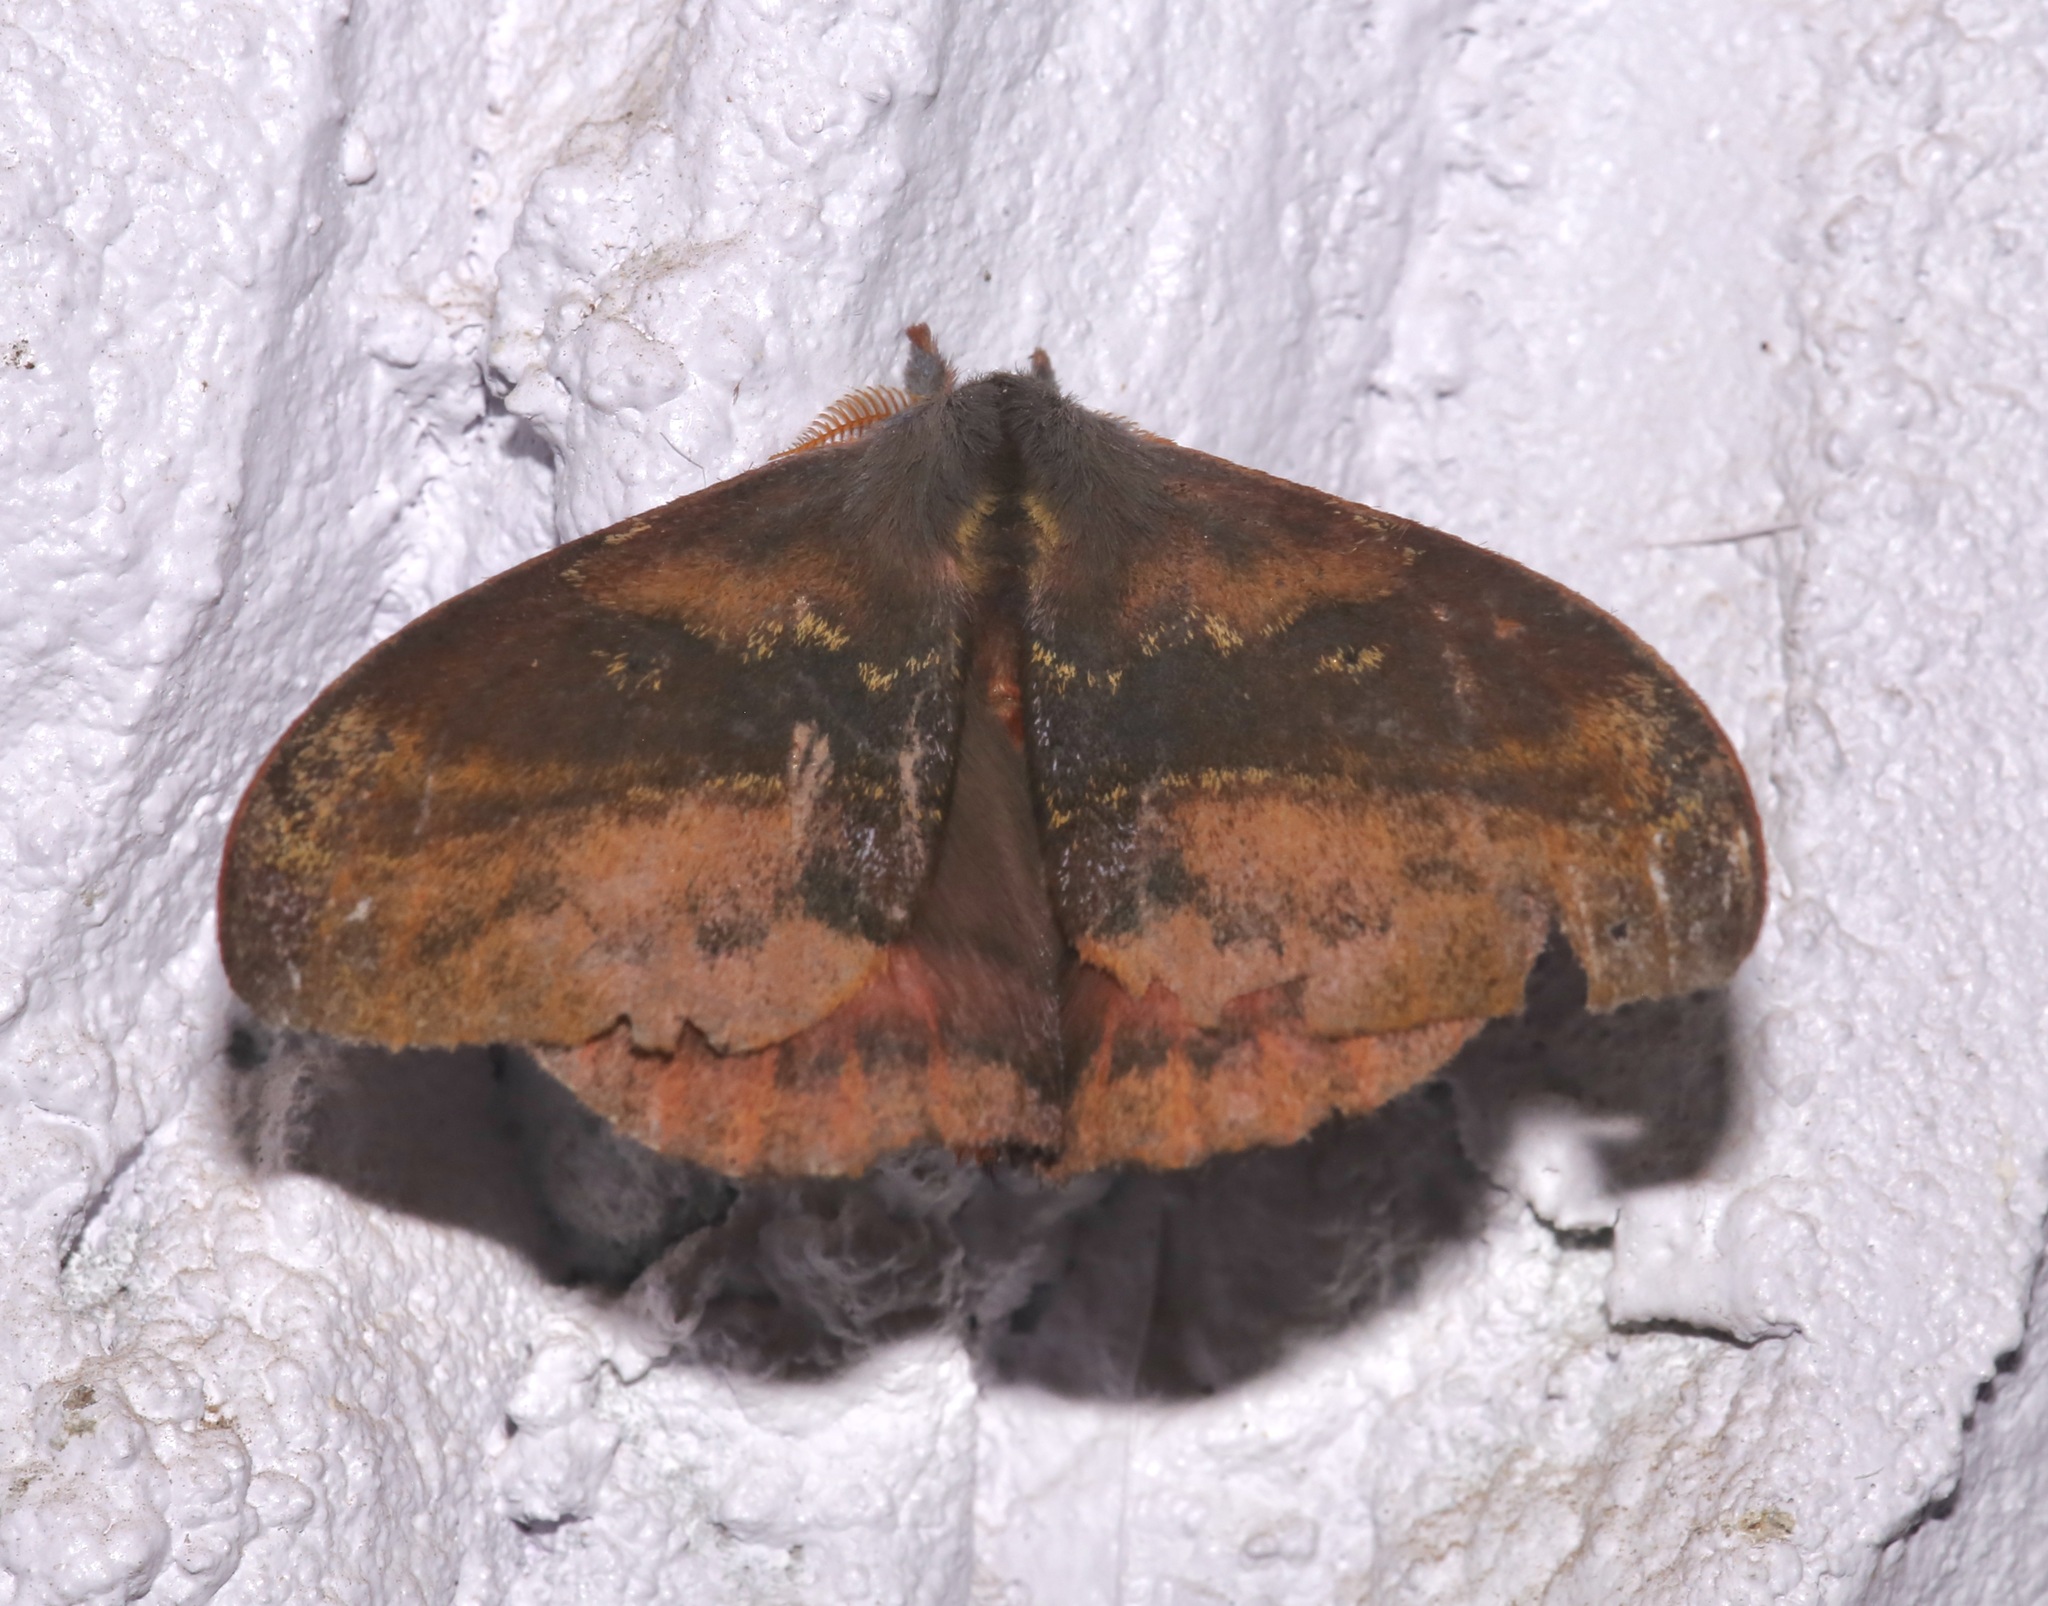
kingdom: Animalia
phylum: Arthropoda
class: Insecta
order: Lepidoptera
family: Saturniidae
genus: Hylesia
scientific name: Hylesia aeneides
